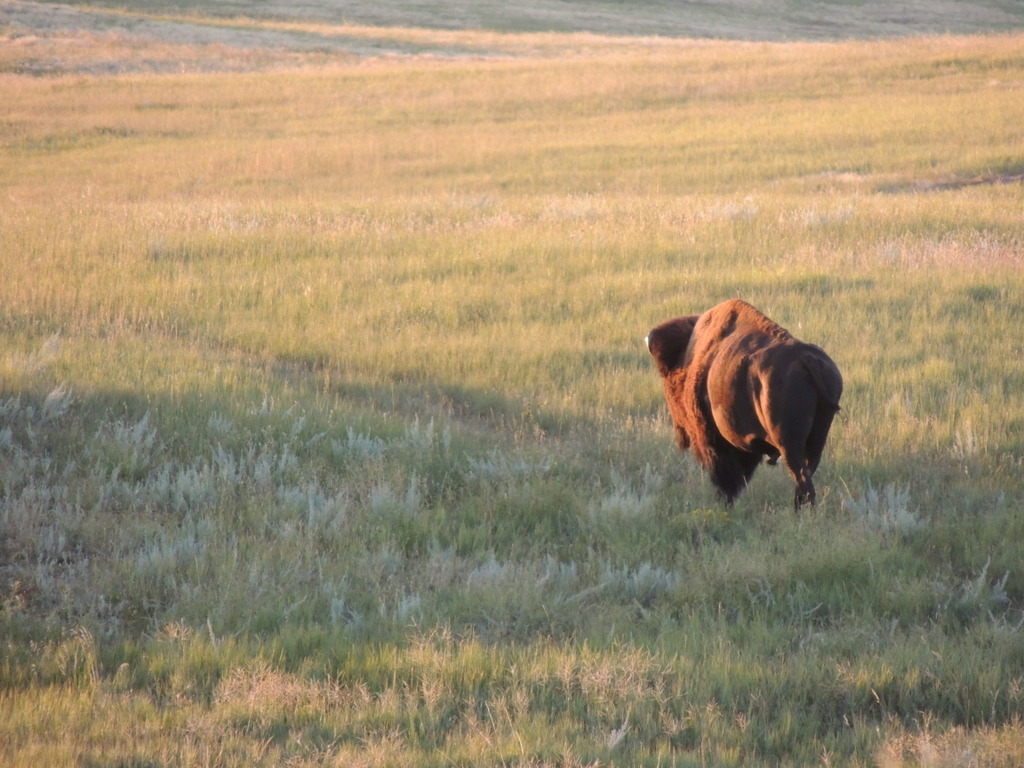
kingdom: Animalia
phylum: Chordata
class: Mammalia
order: Artiodactyla
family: Bovidae
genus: Bison
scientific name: Bison bison
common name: American bison
